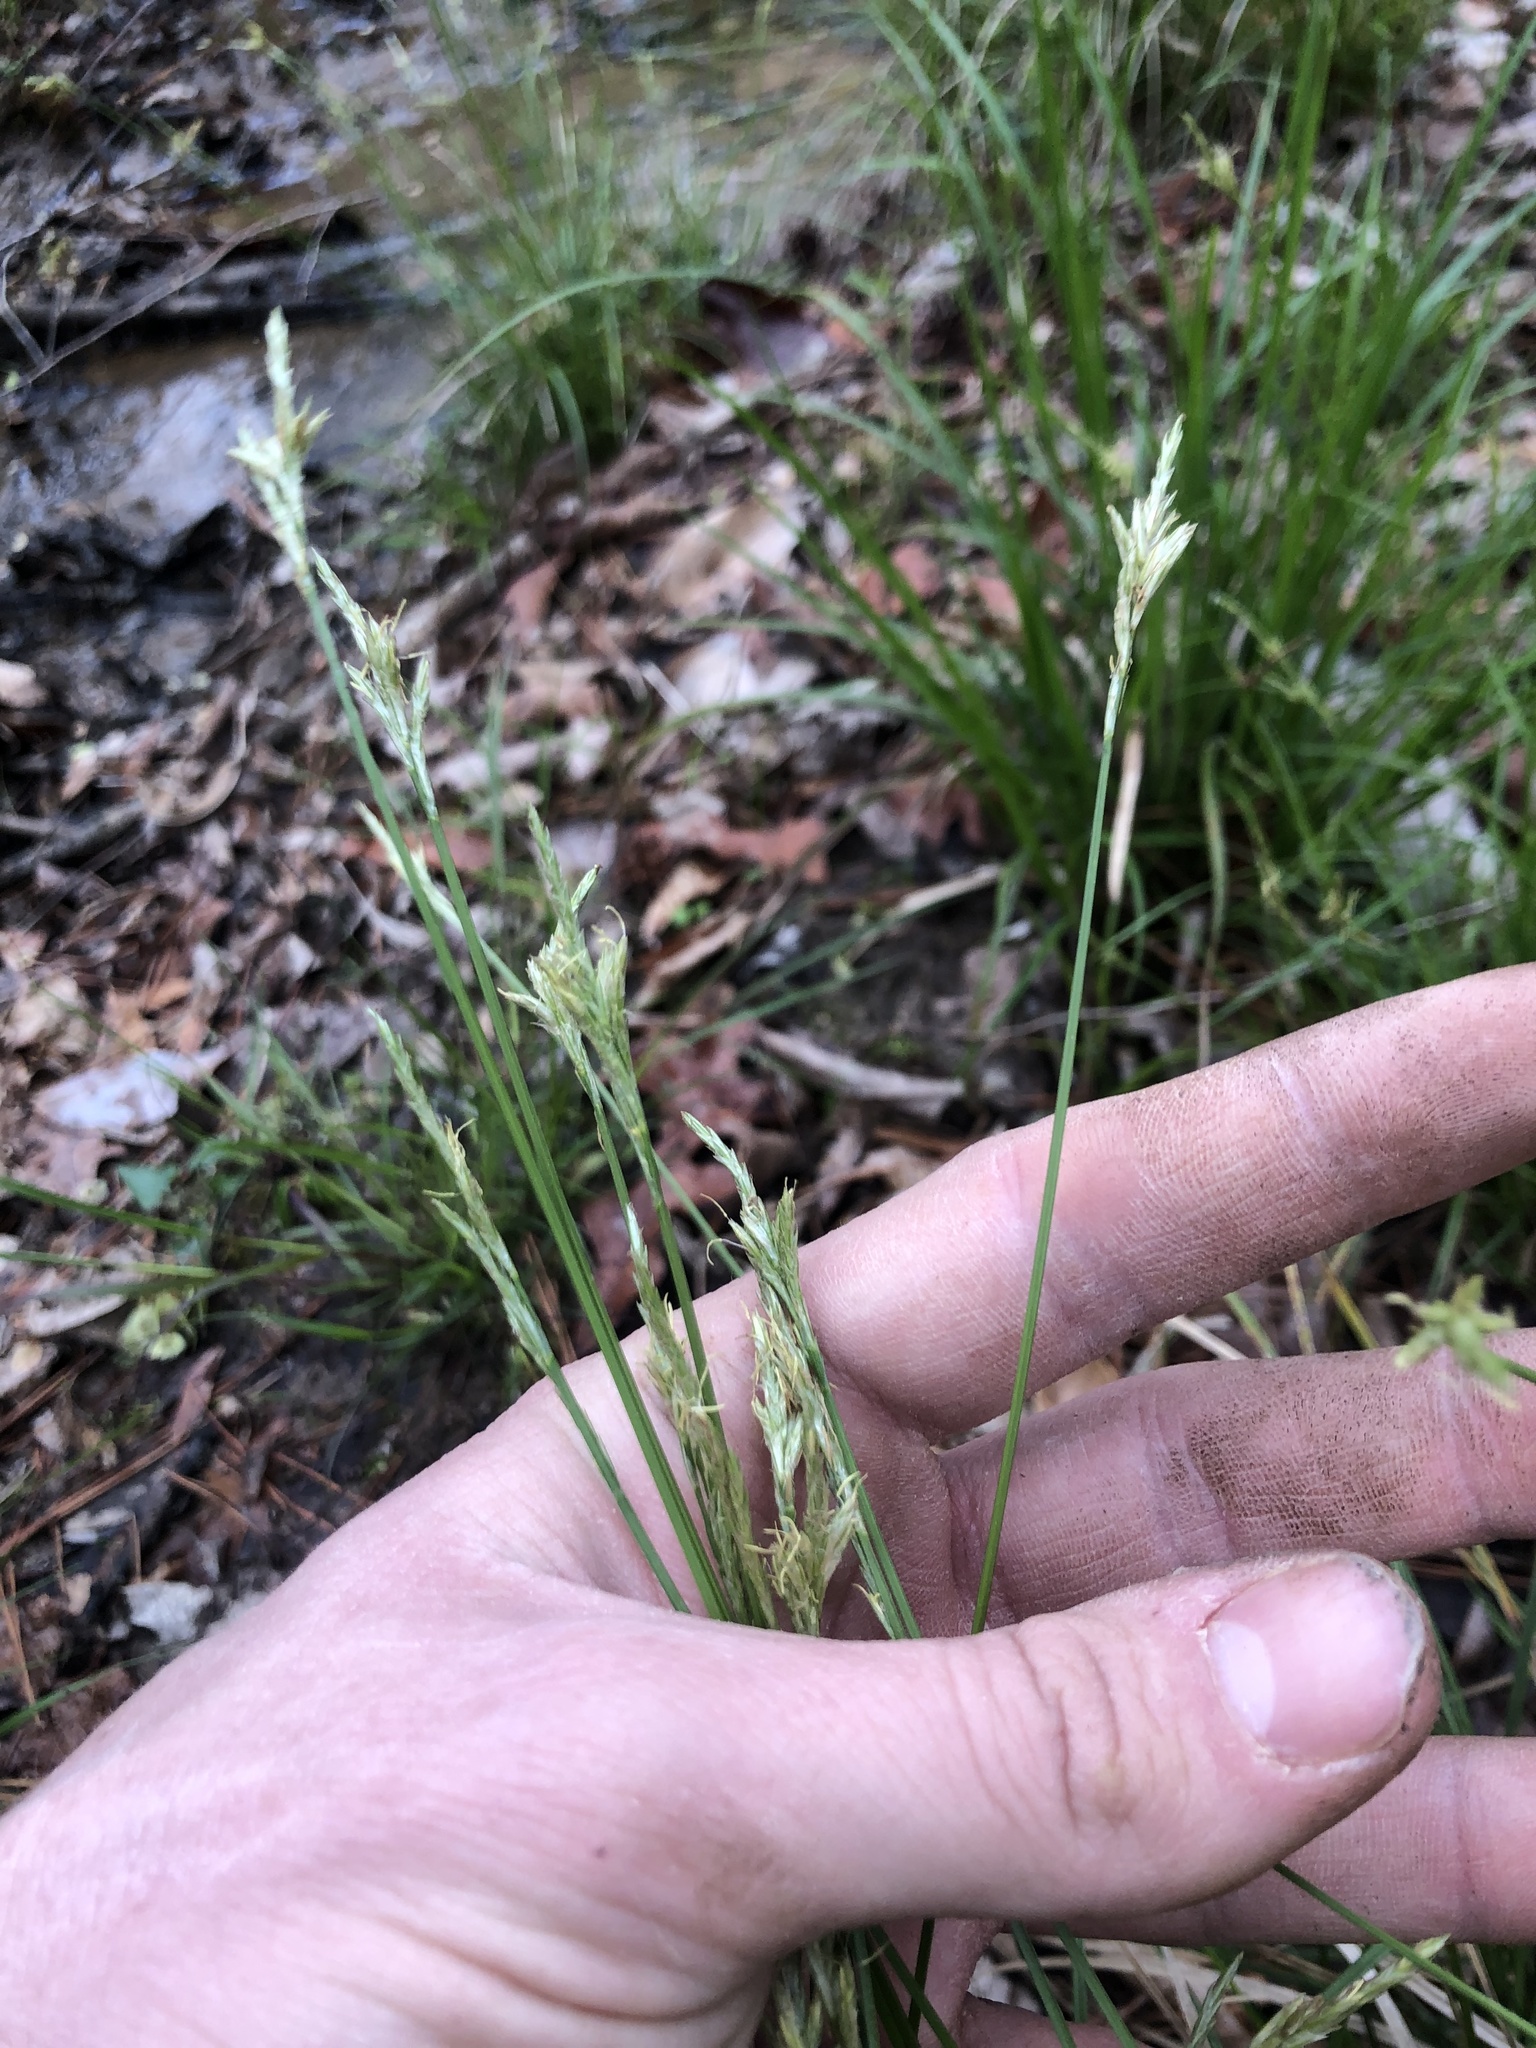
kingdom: Plantae
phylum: Tracheophyta
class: Liliopsida
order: Poales
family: Cyperaceae
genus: Carex
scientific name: Carex bromoides
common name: Brome hummock sedge
